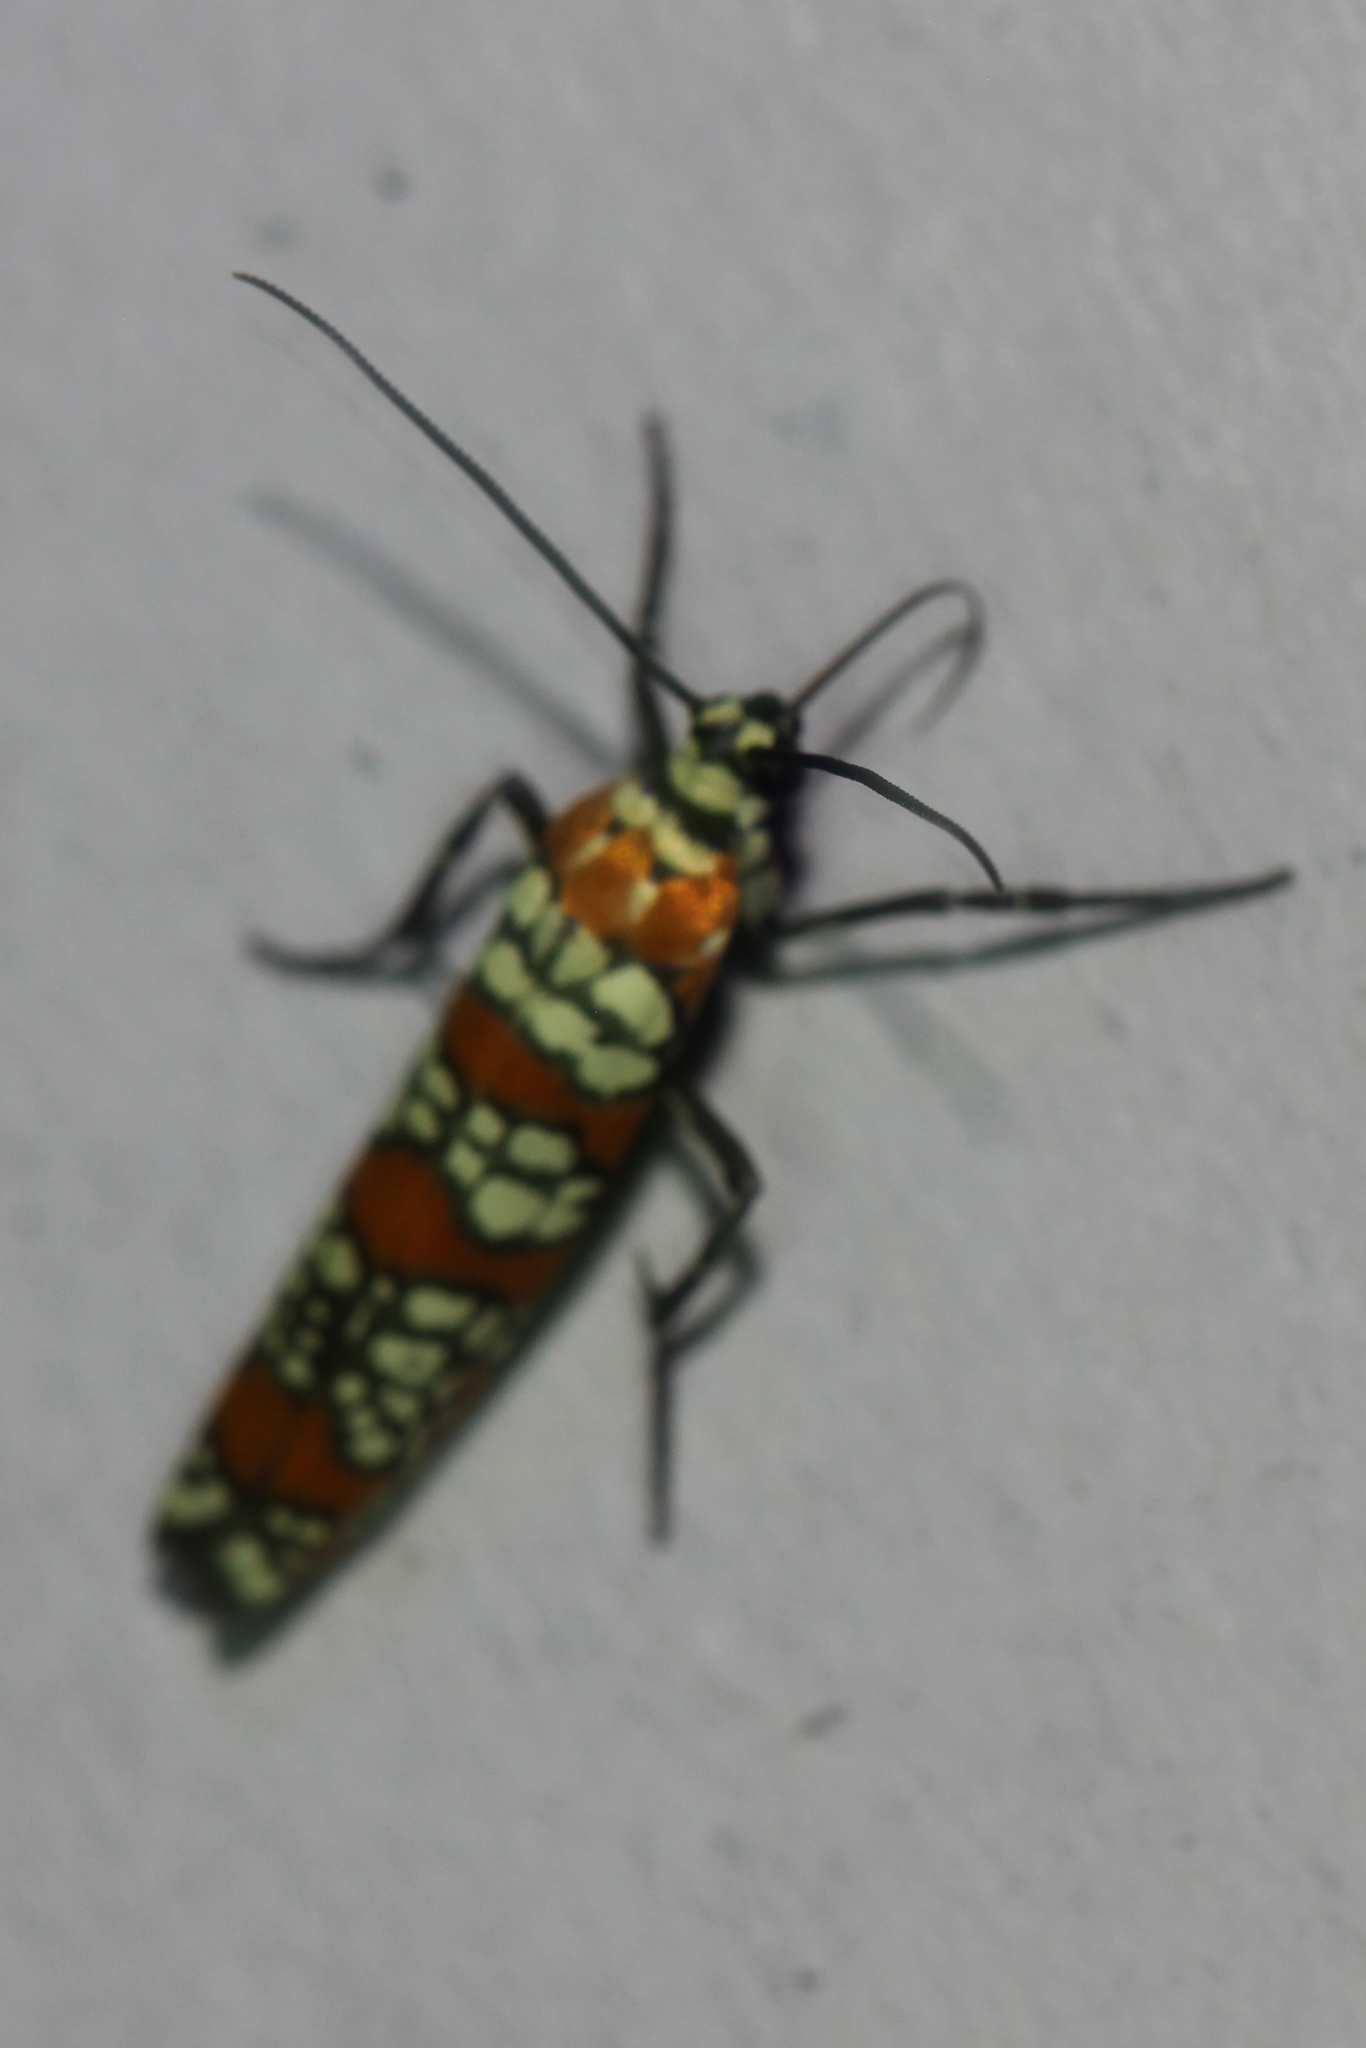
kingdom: Animalia
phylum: Arthropoda
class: Insecta
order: Lepidoptera
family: Attevidae
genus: Atteva
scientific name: Atteva punctella
